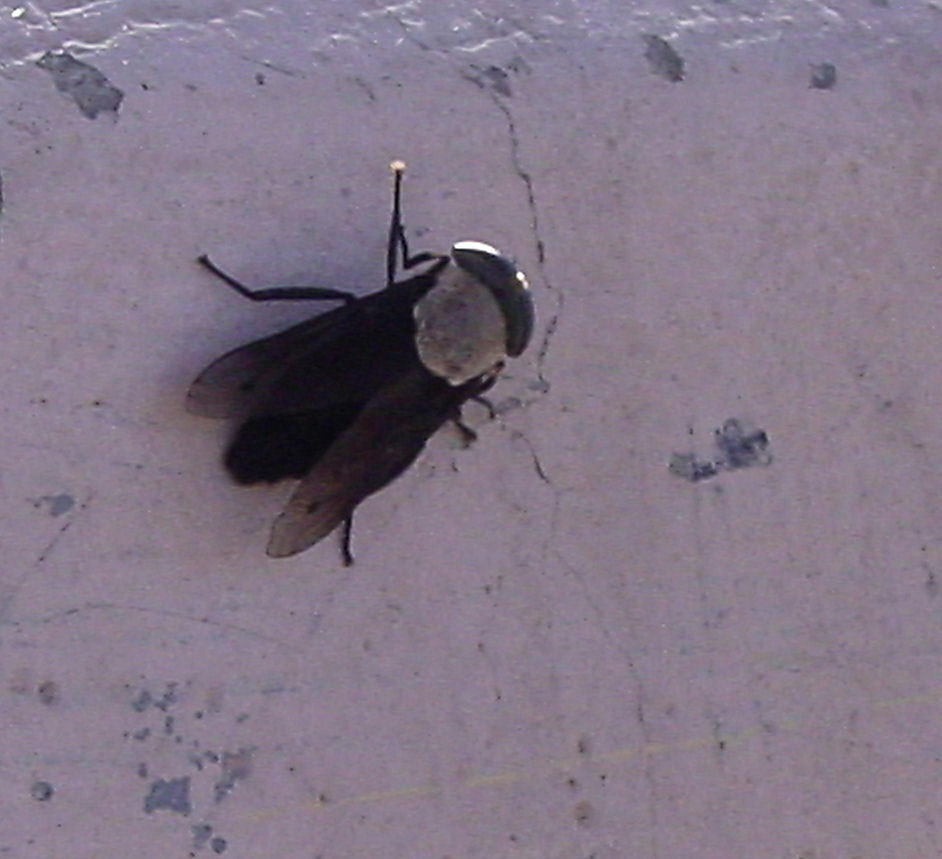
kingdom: Animalia
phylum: Arthropoda
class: Insecta
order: Diptera
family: Tabanidae
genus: Tabanus
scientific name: Tabanus punctifer
